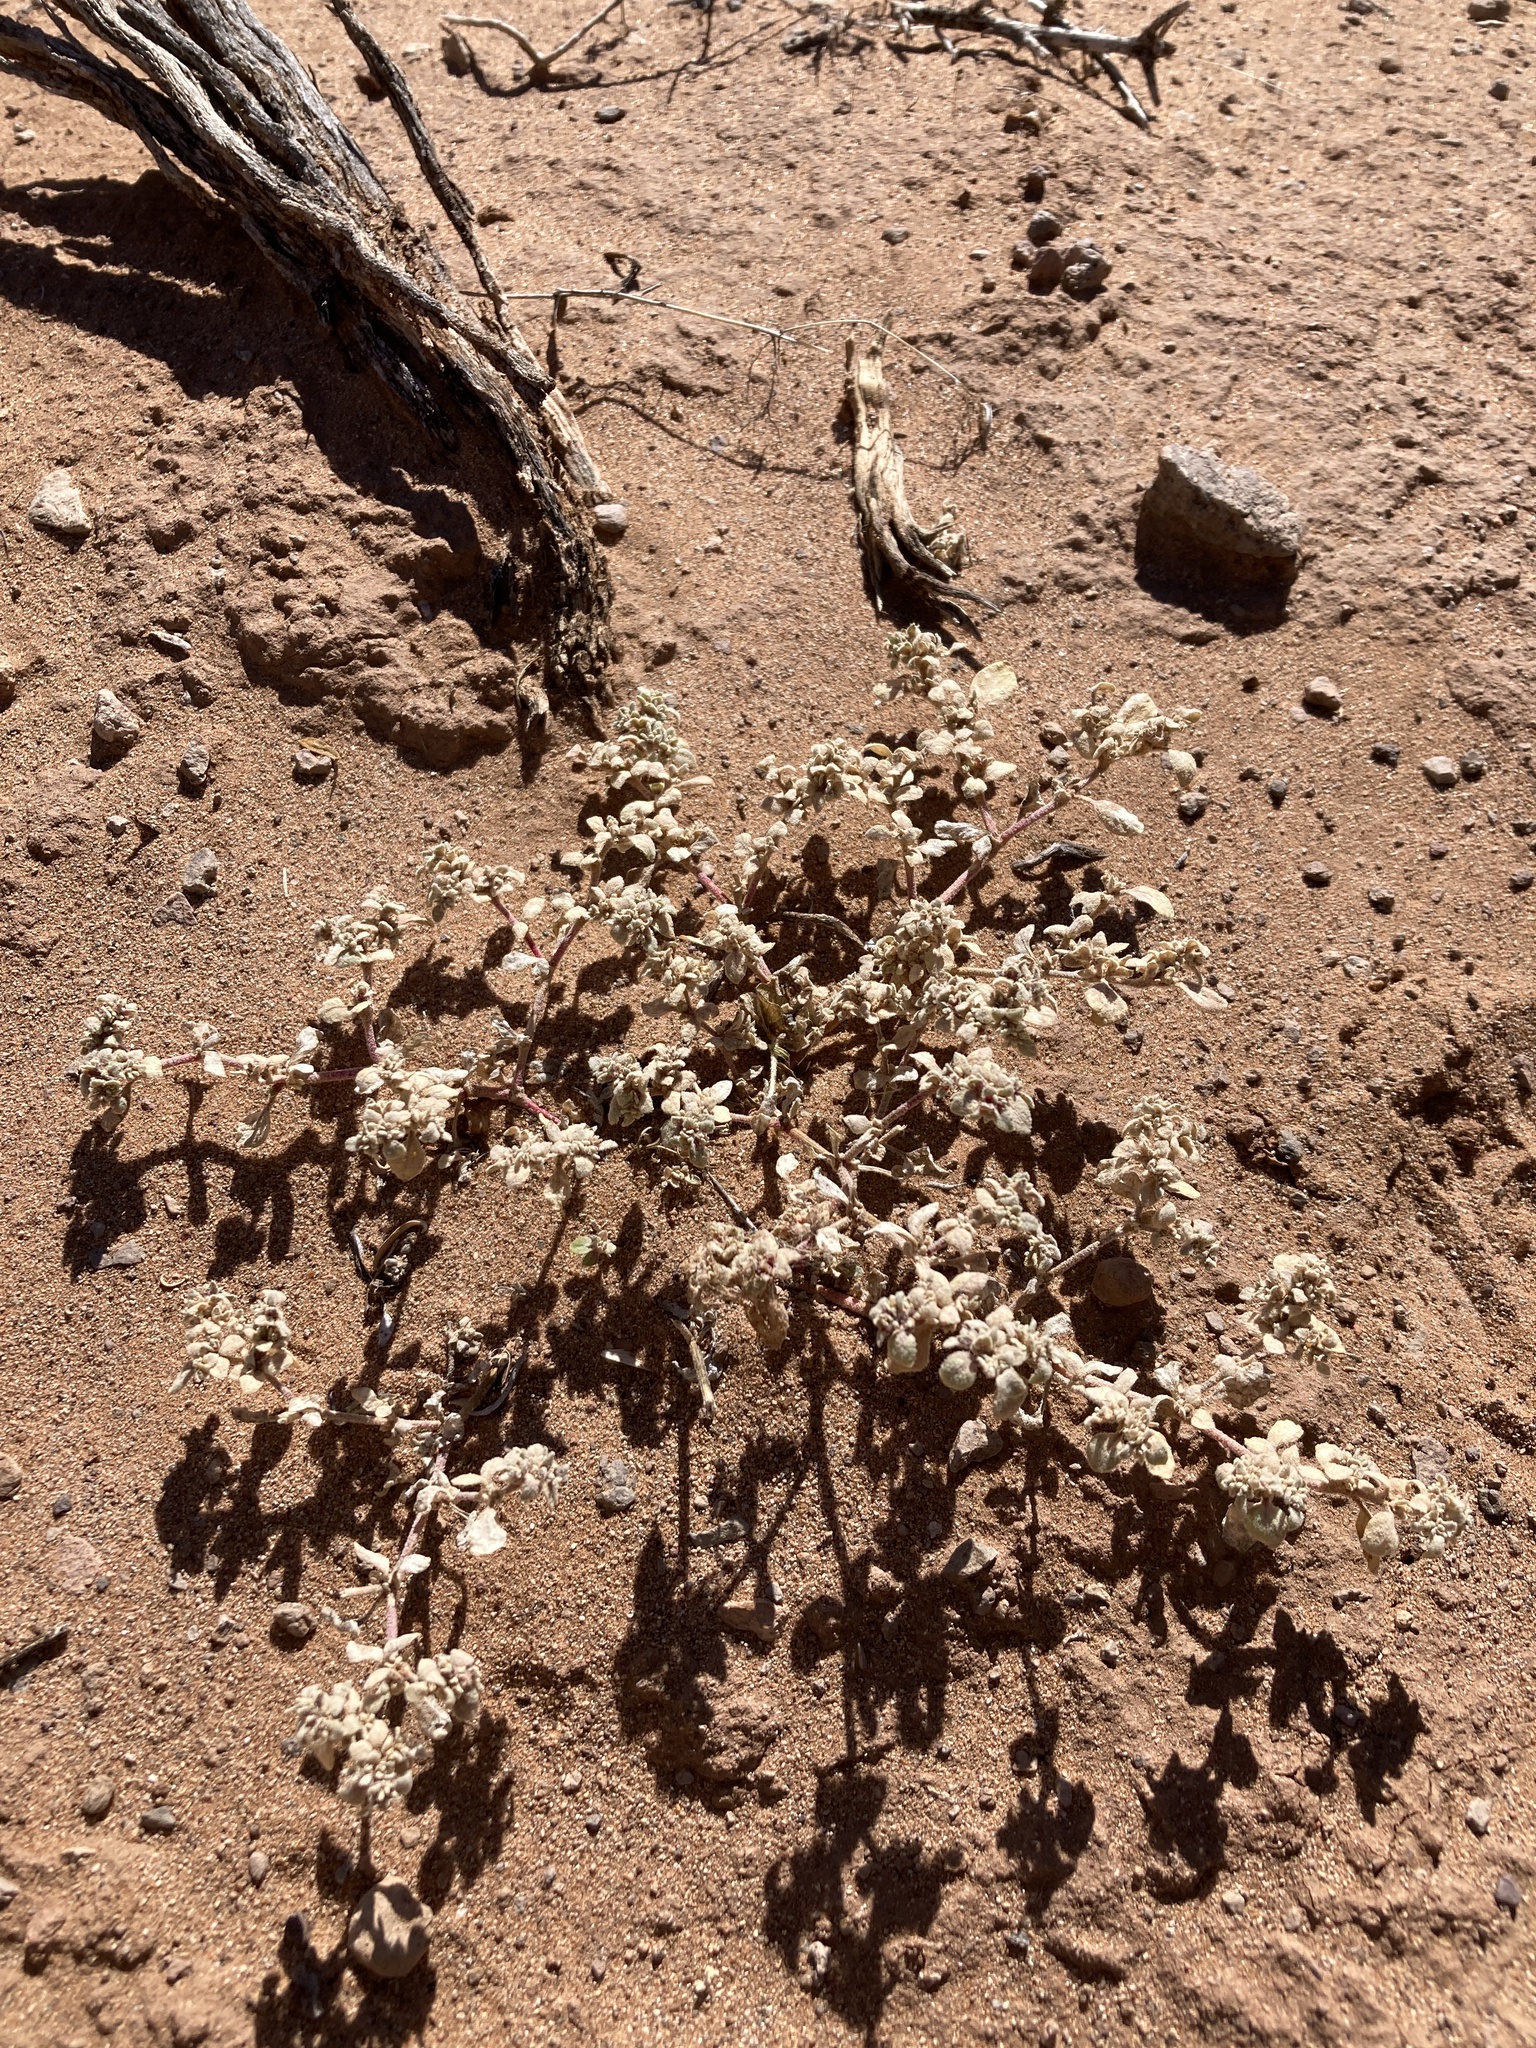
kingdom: Plantae
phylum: Tracheophyta
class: Magnoliopsida
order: Caryophyllales
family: Amaranthaceae
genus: Tidestromia
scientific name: Tidestromia lanuginosa
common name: Woolly tidestromia
